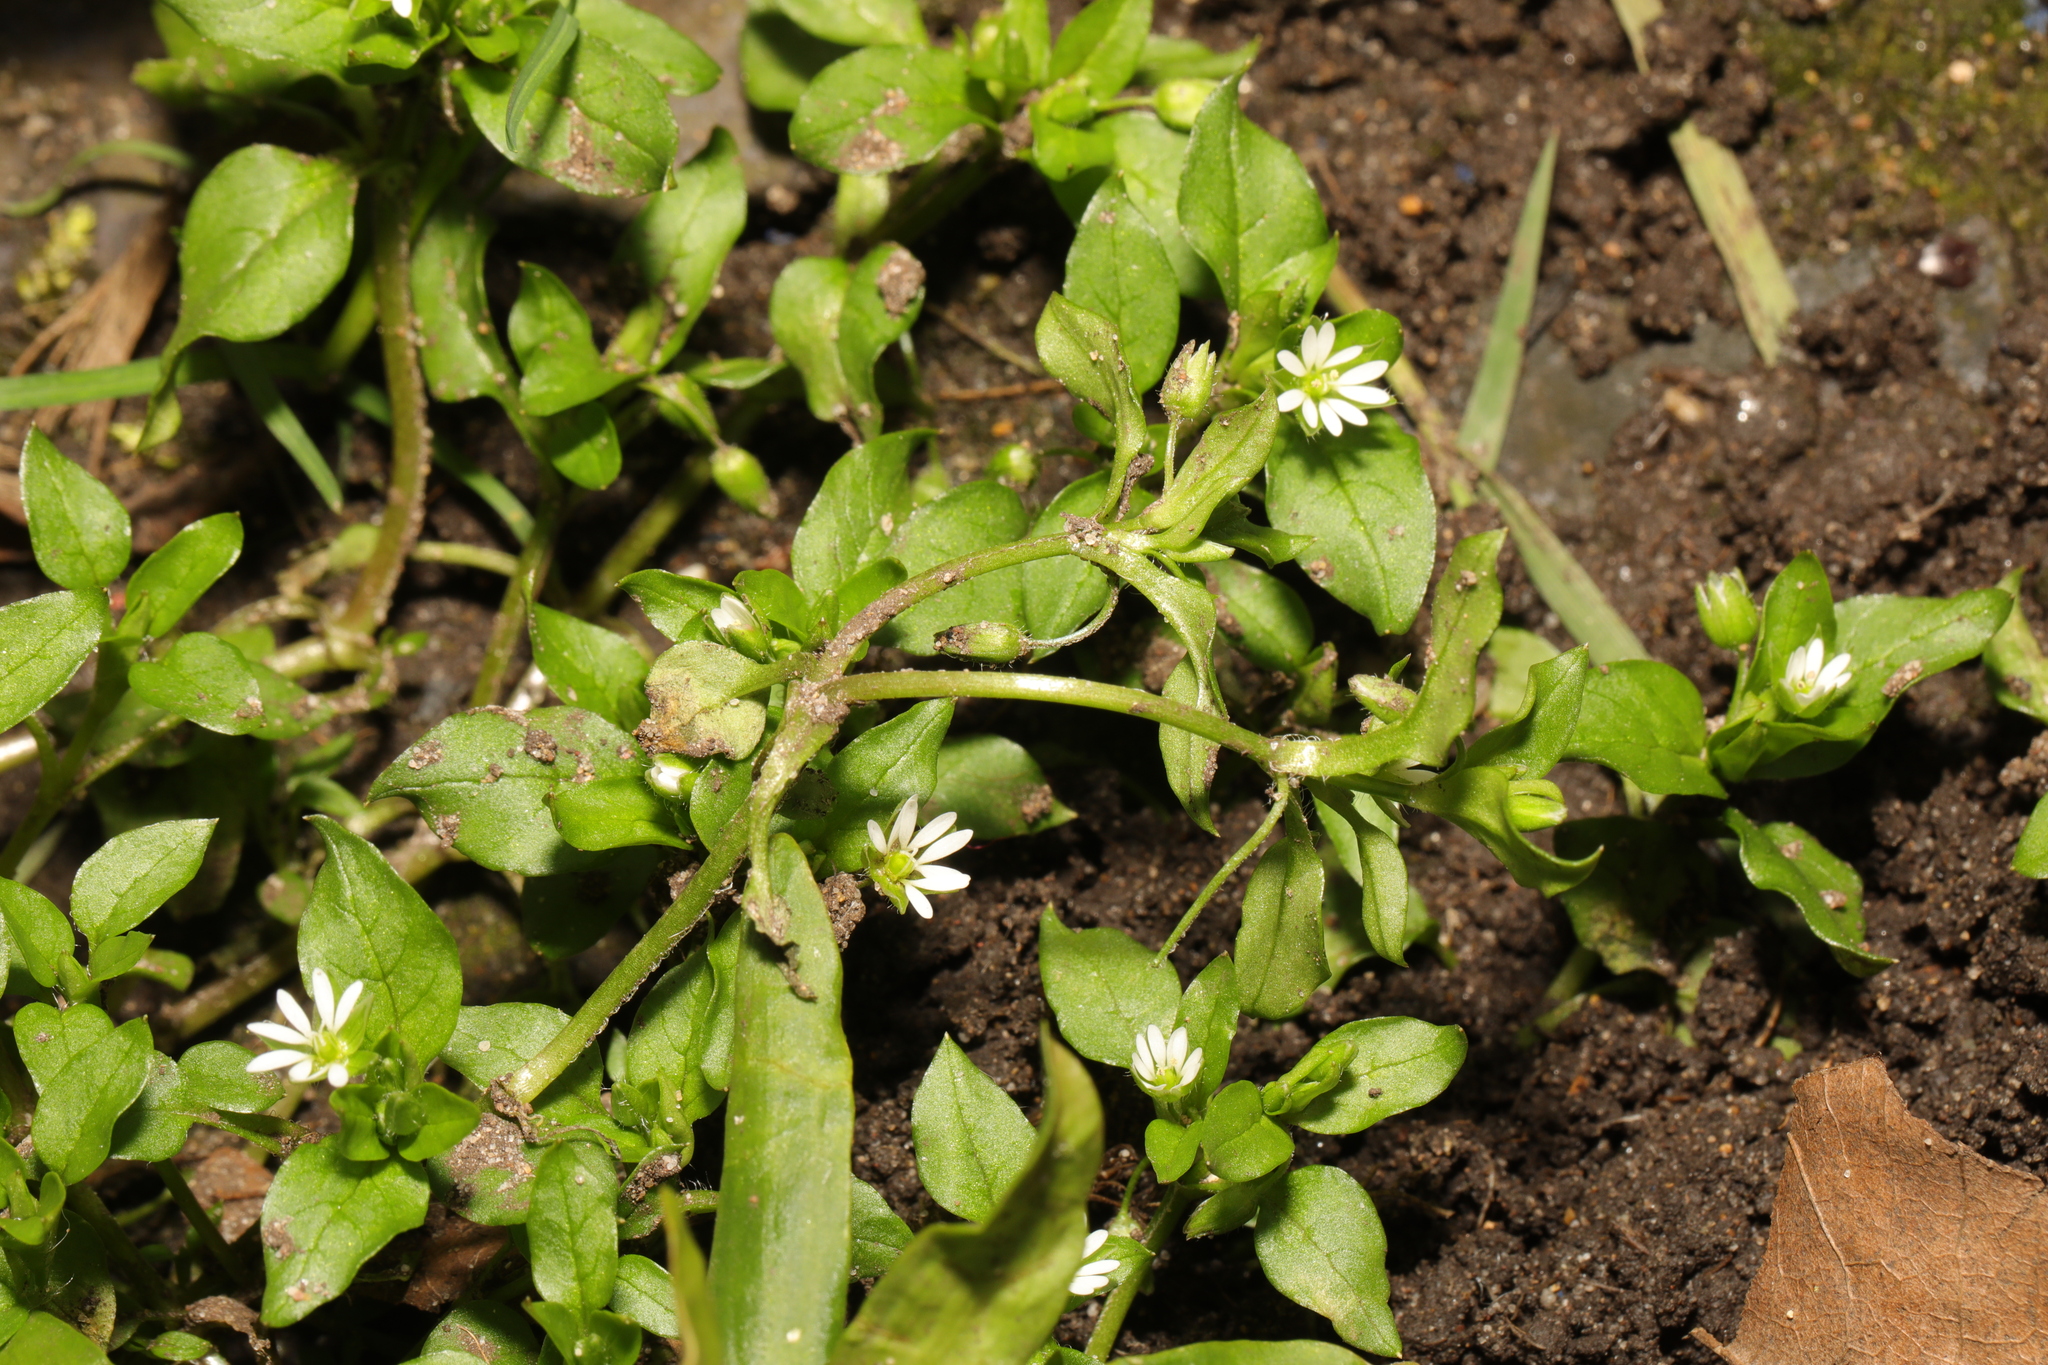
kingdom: Plantae
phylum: Tracheophyta
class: Magnoliopsida
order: Caryophyllales
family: Caryophyllaceae
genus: Stellaria
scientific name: Stellaria media
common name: Common chickweed
